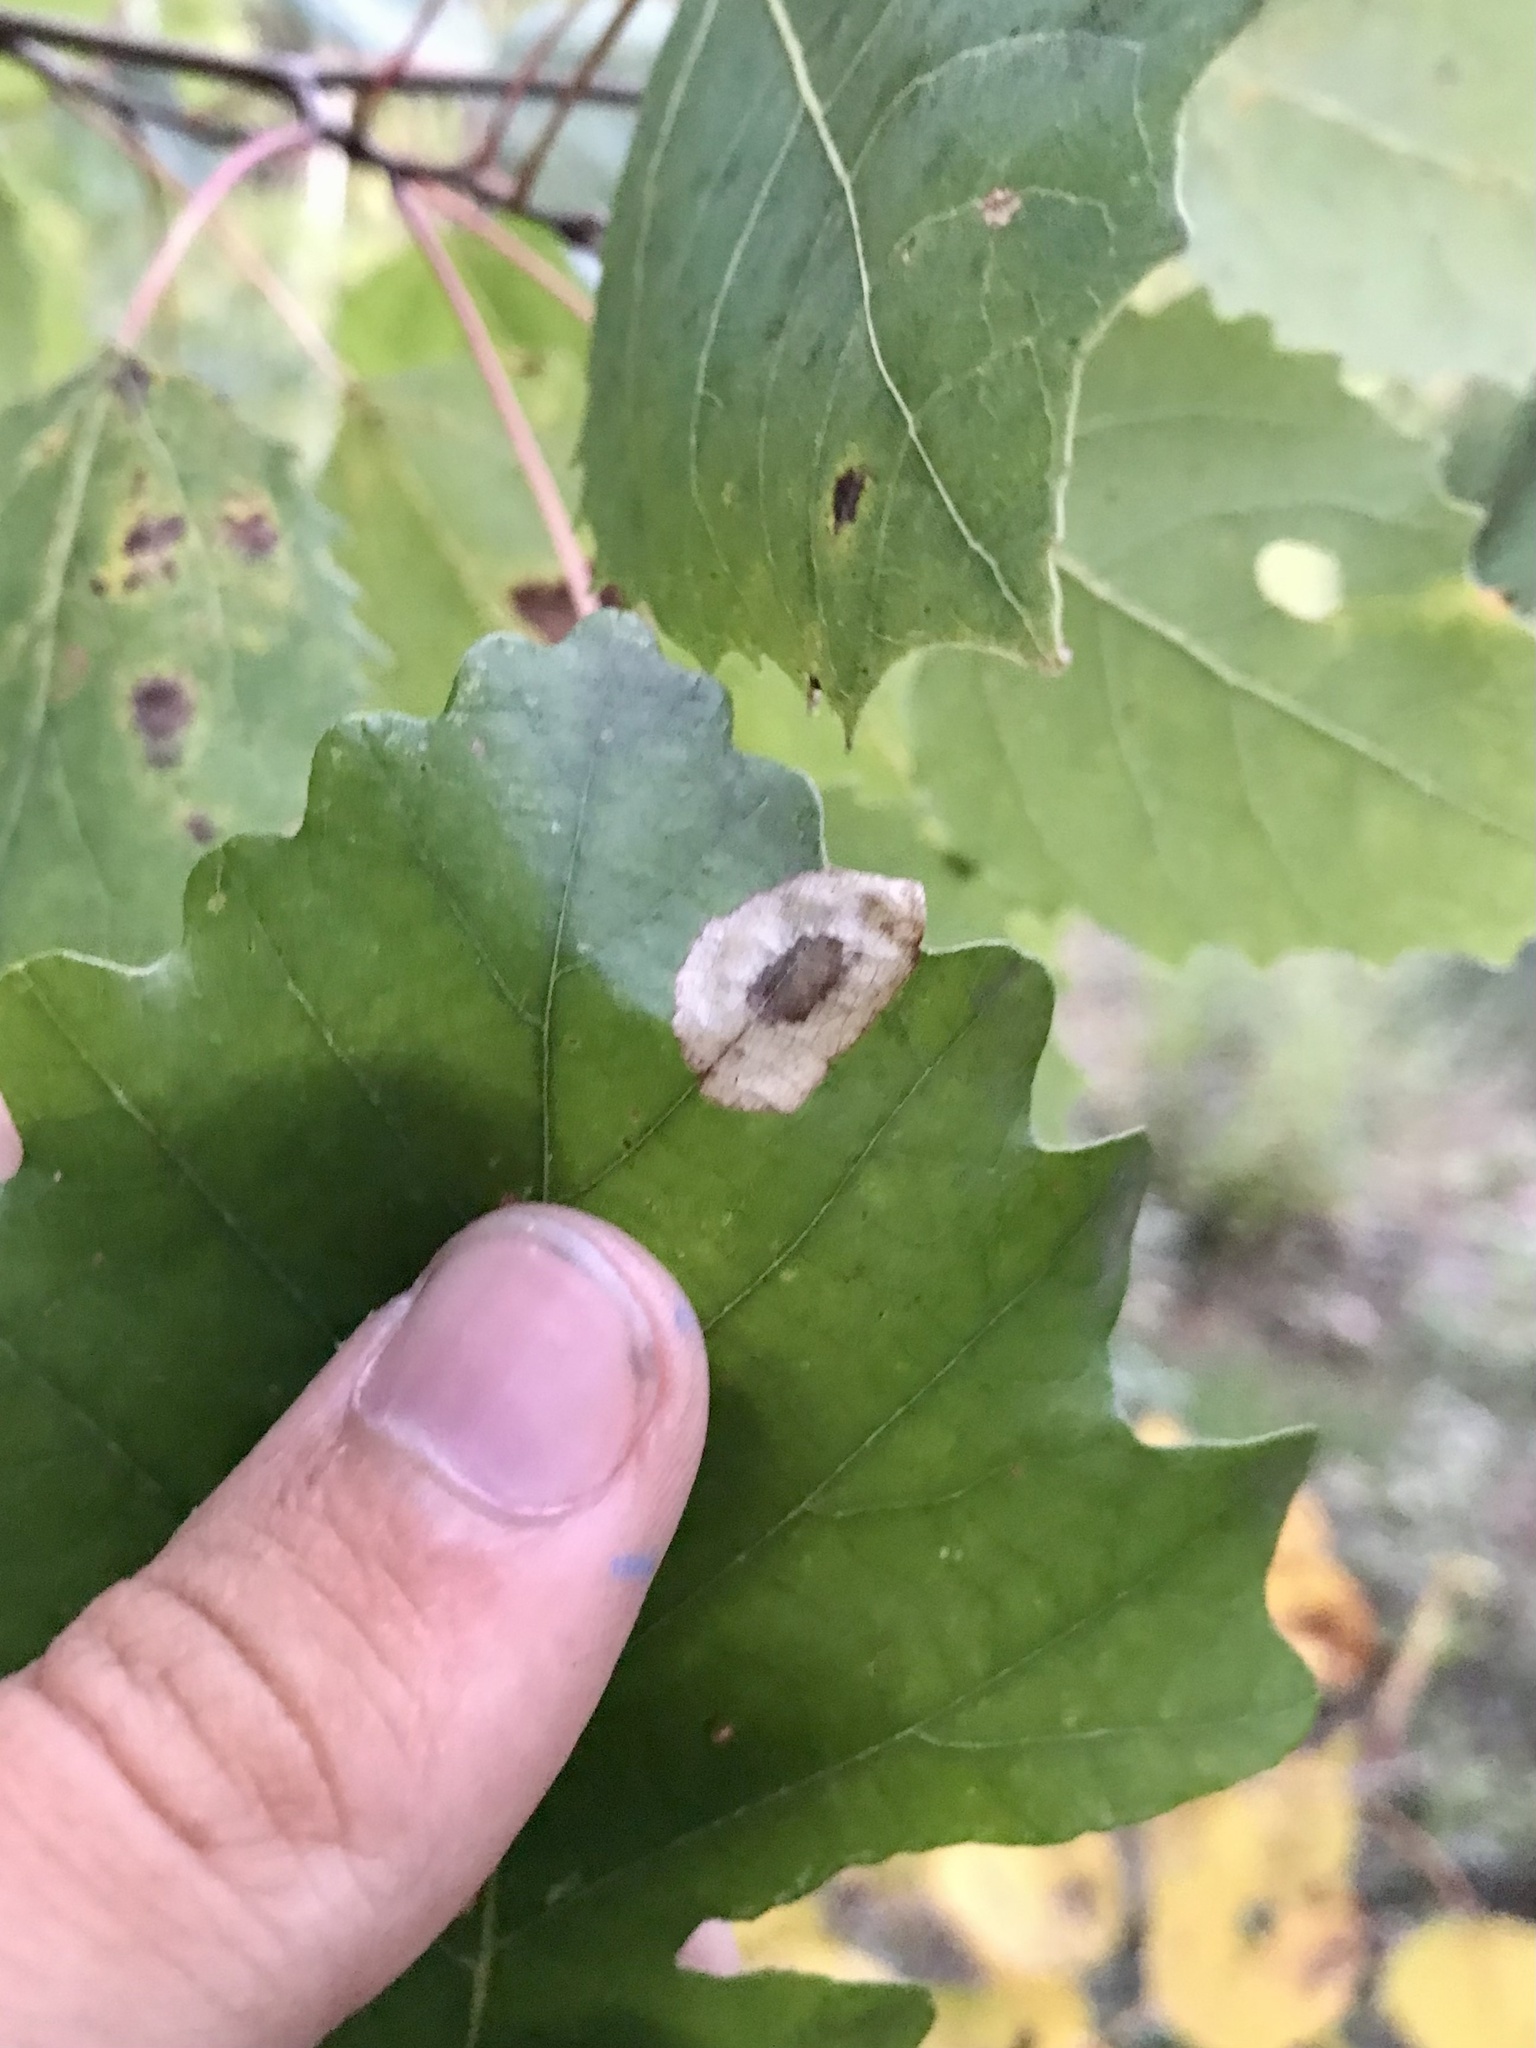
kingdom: Animalia
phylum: Arthropoda
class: Insecta
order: Lepidoptera
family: Gracillariidae
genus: Phyllonorycter
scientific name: Phyllonorycter basistrigella
